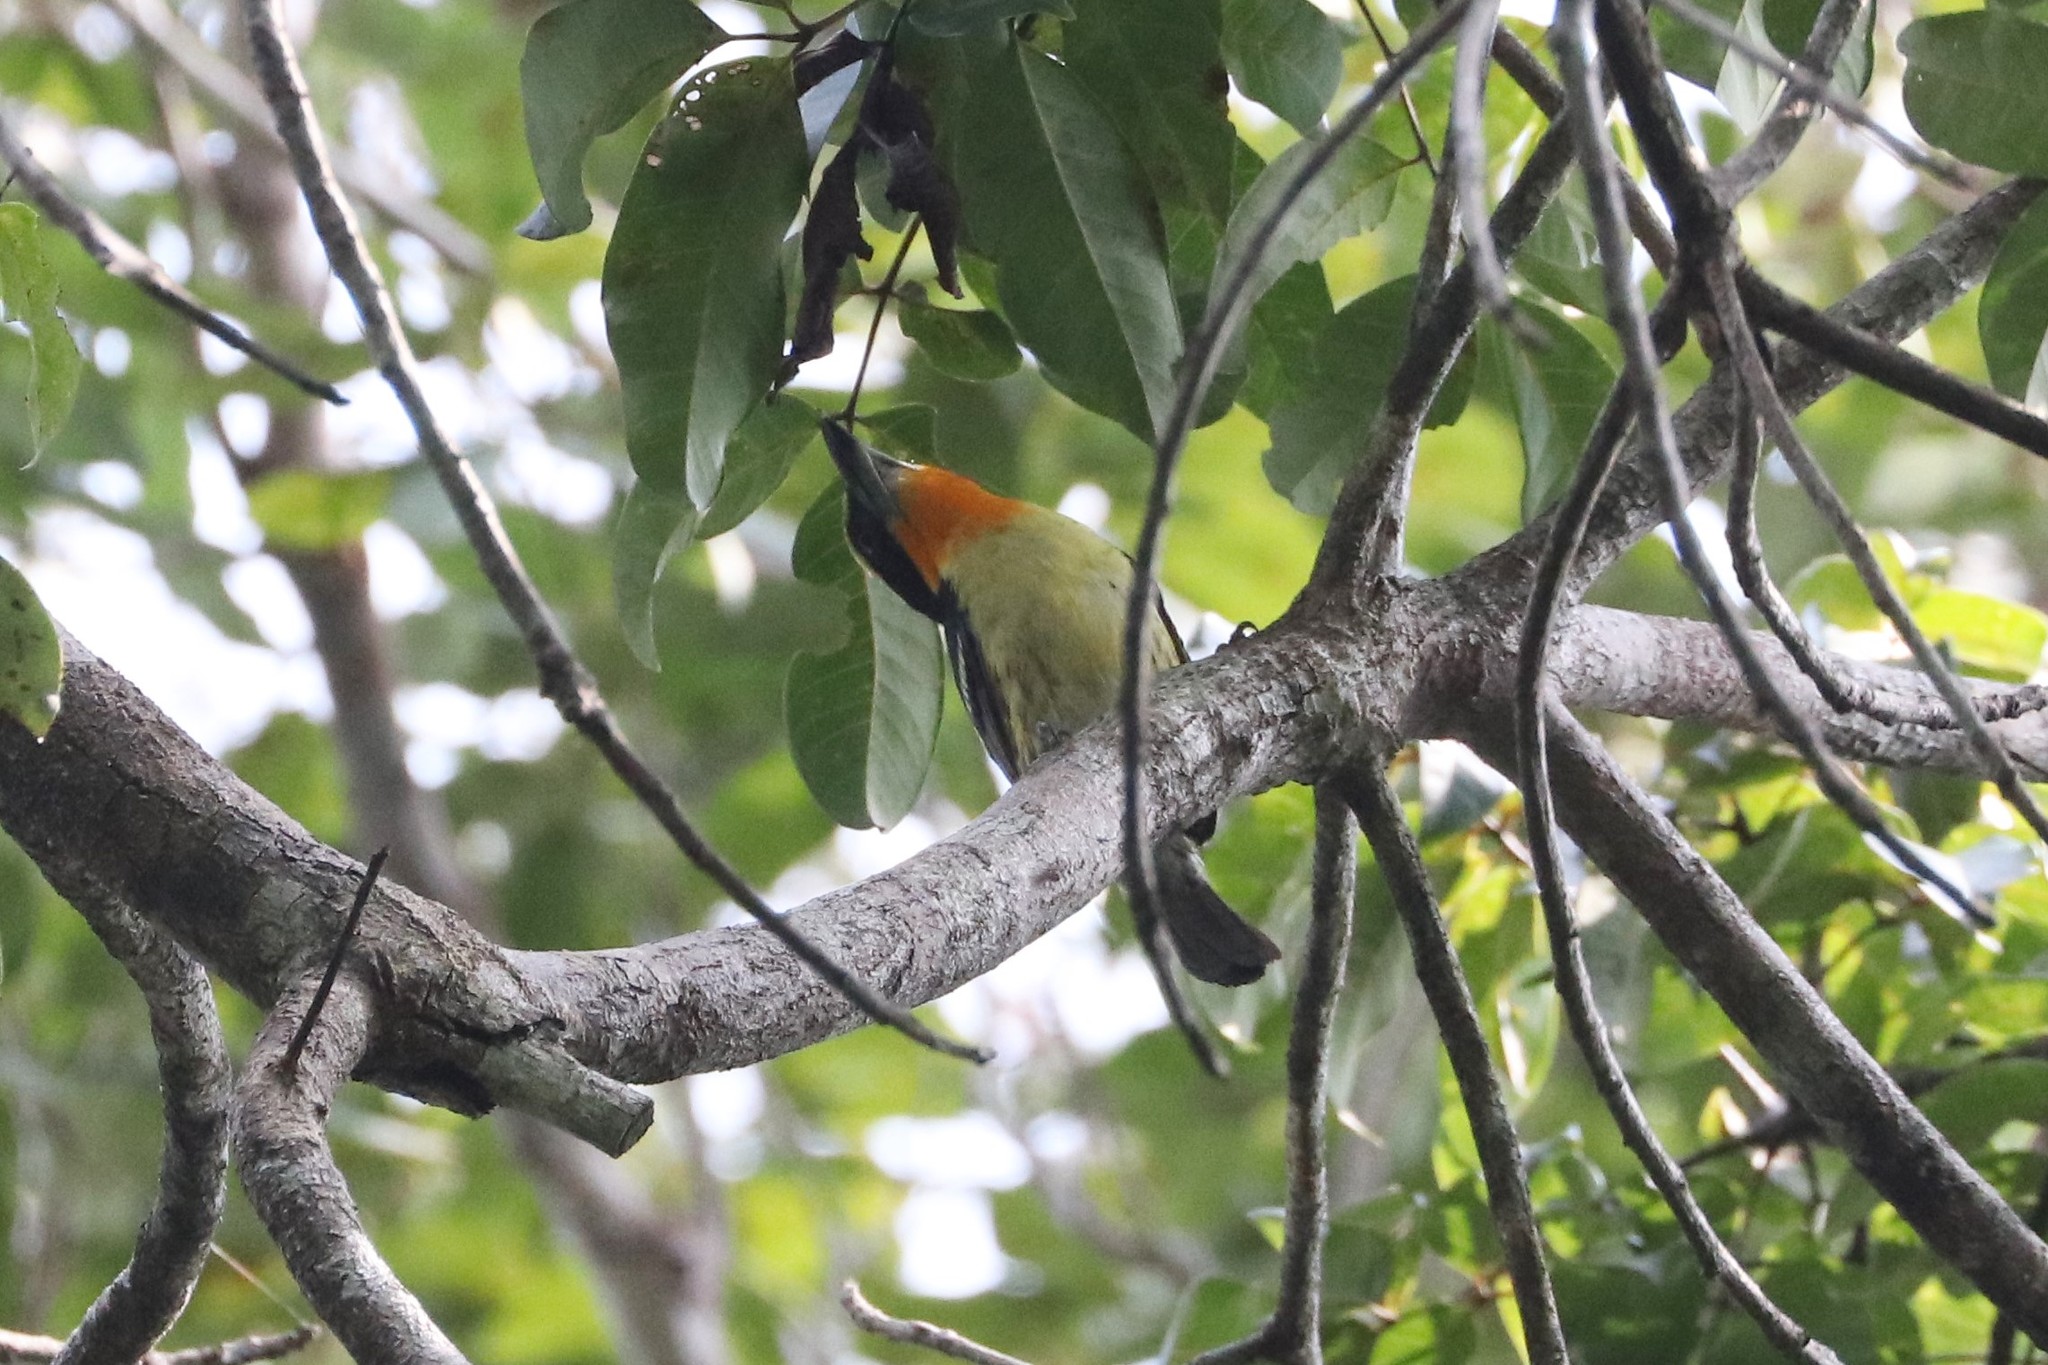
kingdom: Animalia
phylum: Chordata
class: Aves
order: Piciformes
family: Capitonidae
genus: Capito
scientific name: Capito auratus
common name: Gilded barbet
